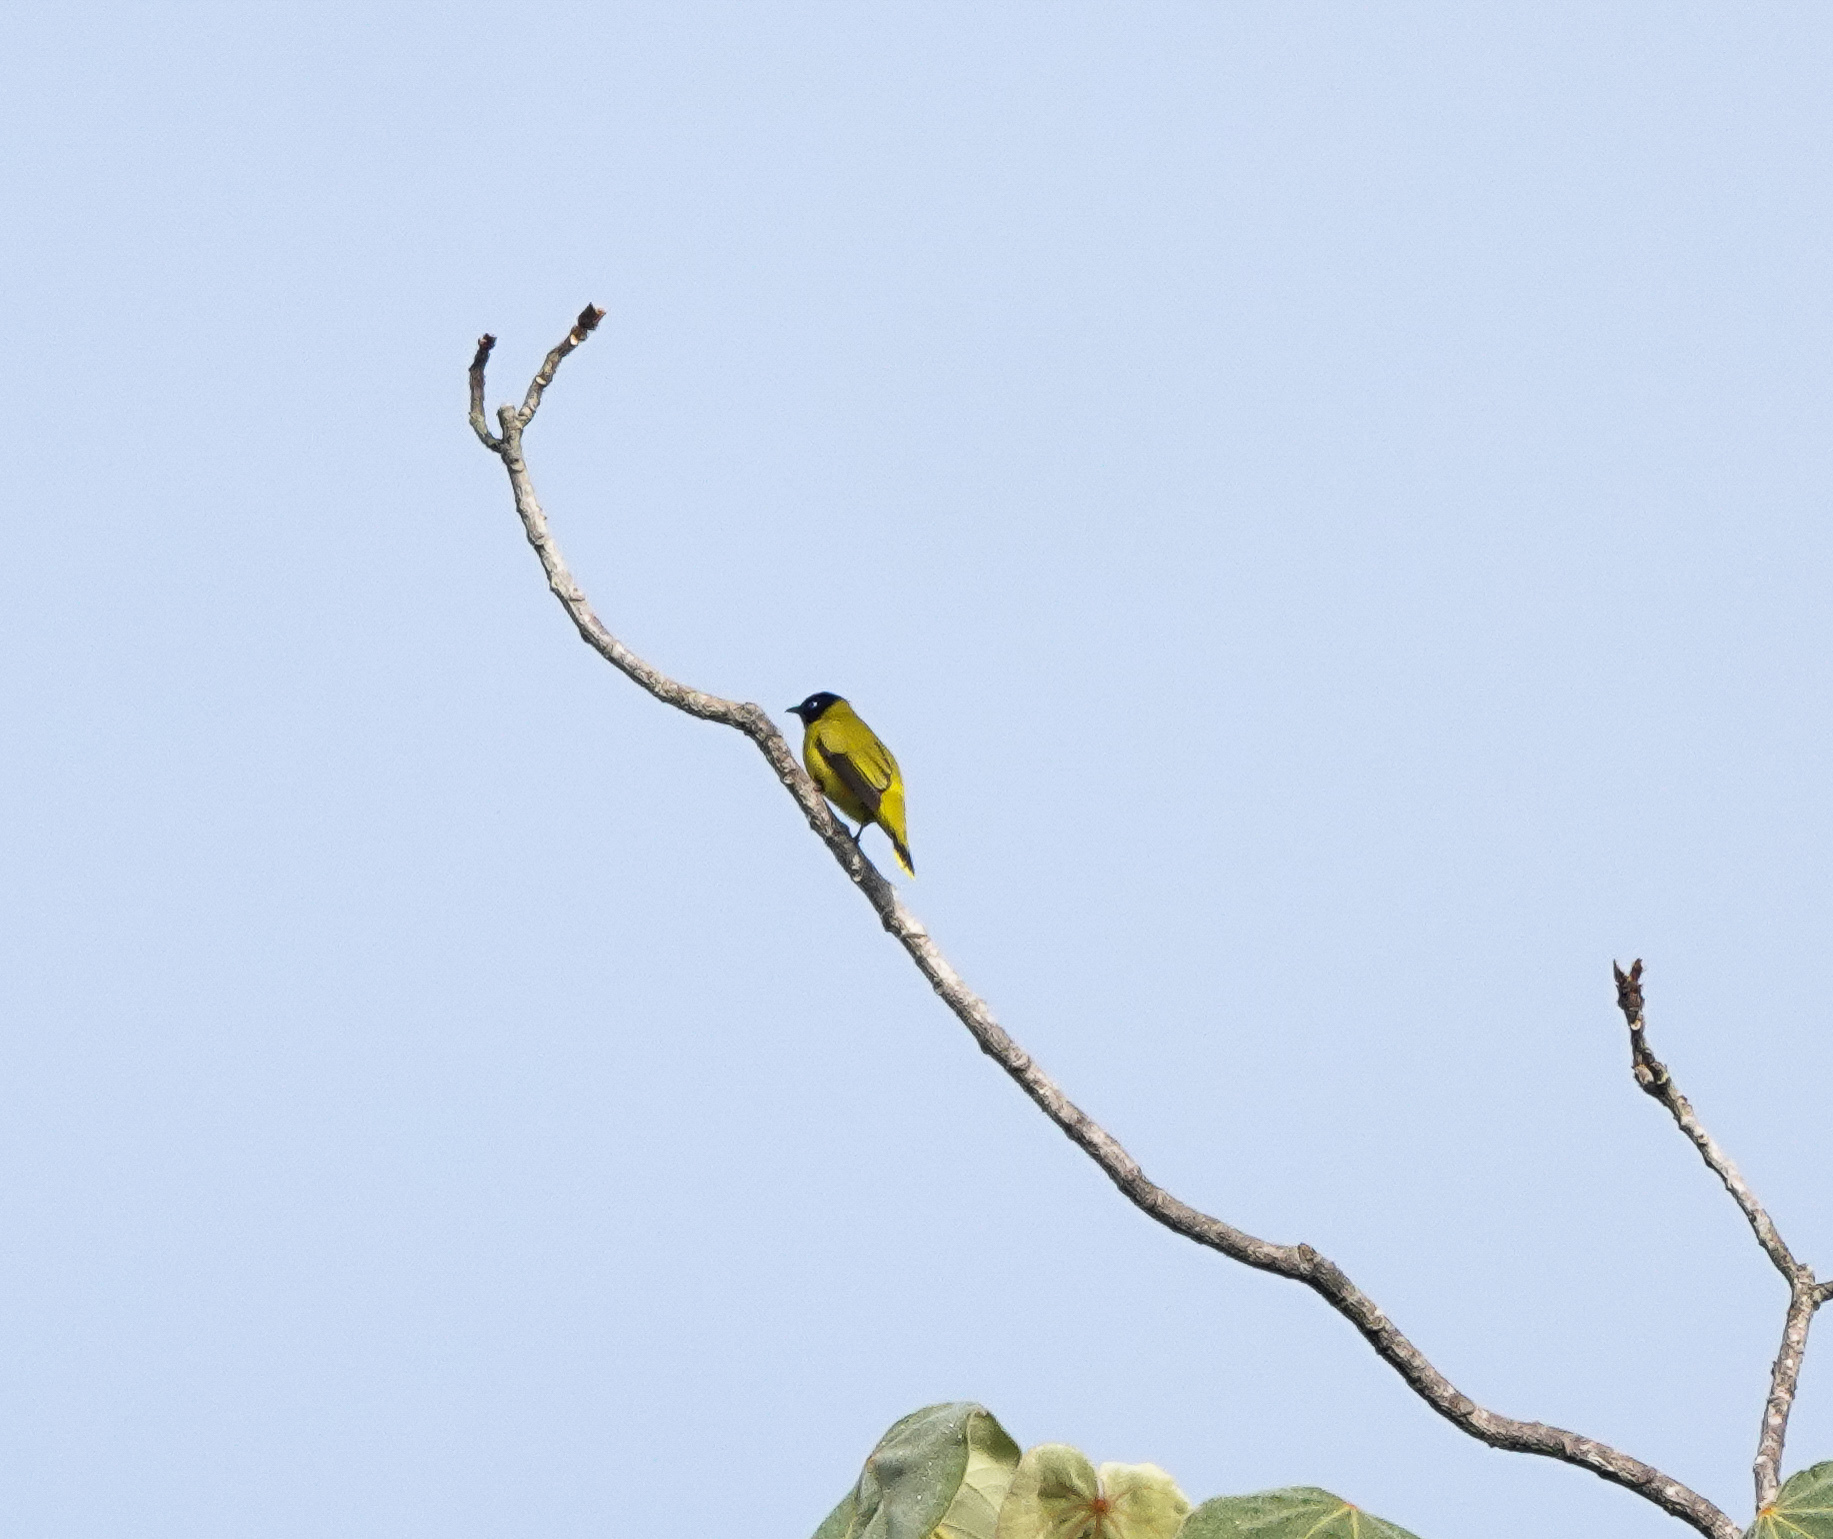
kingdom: Animalia
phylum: Chordata
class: Aves
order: Passeriformes
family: Pycnonotidae
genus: Microtarsus
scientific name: Microtarsus
